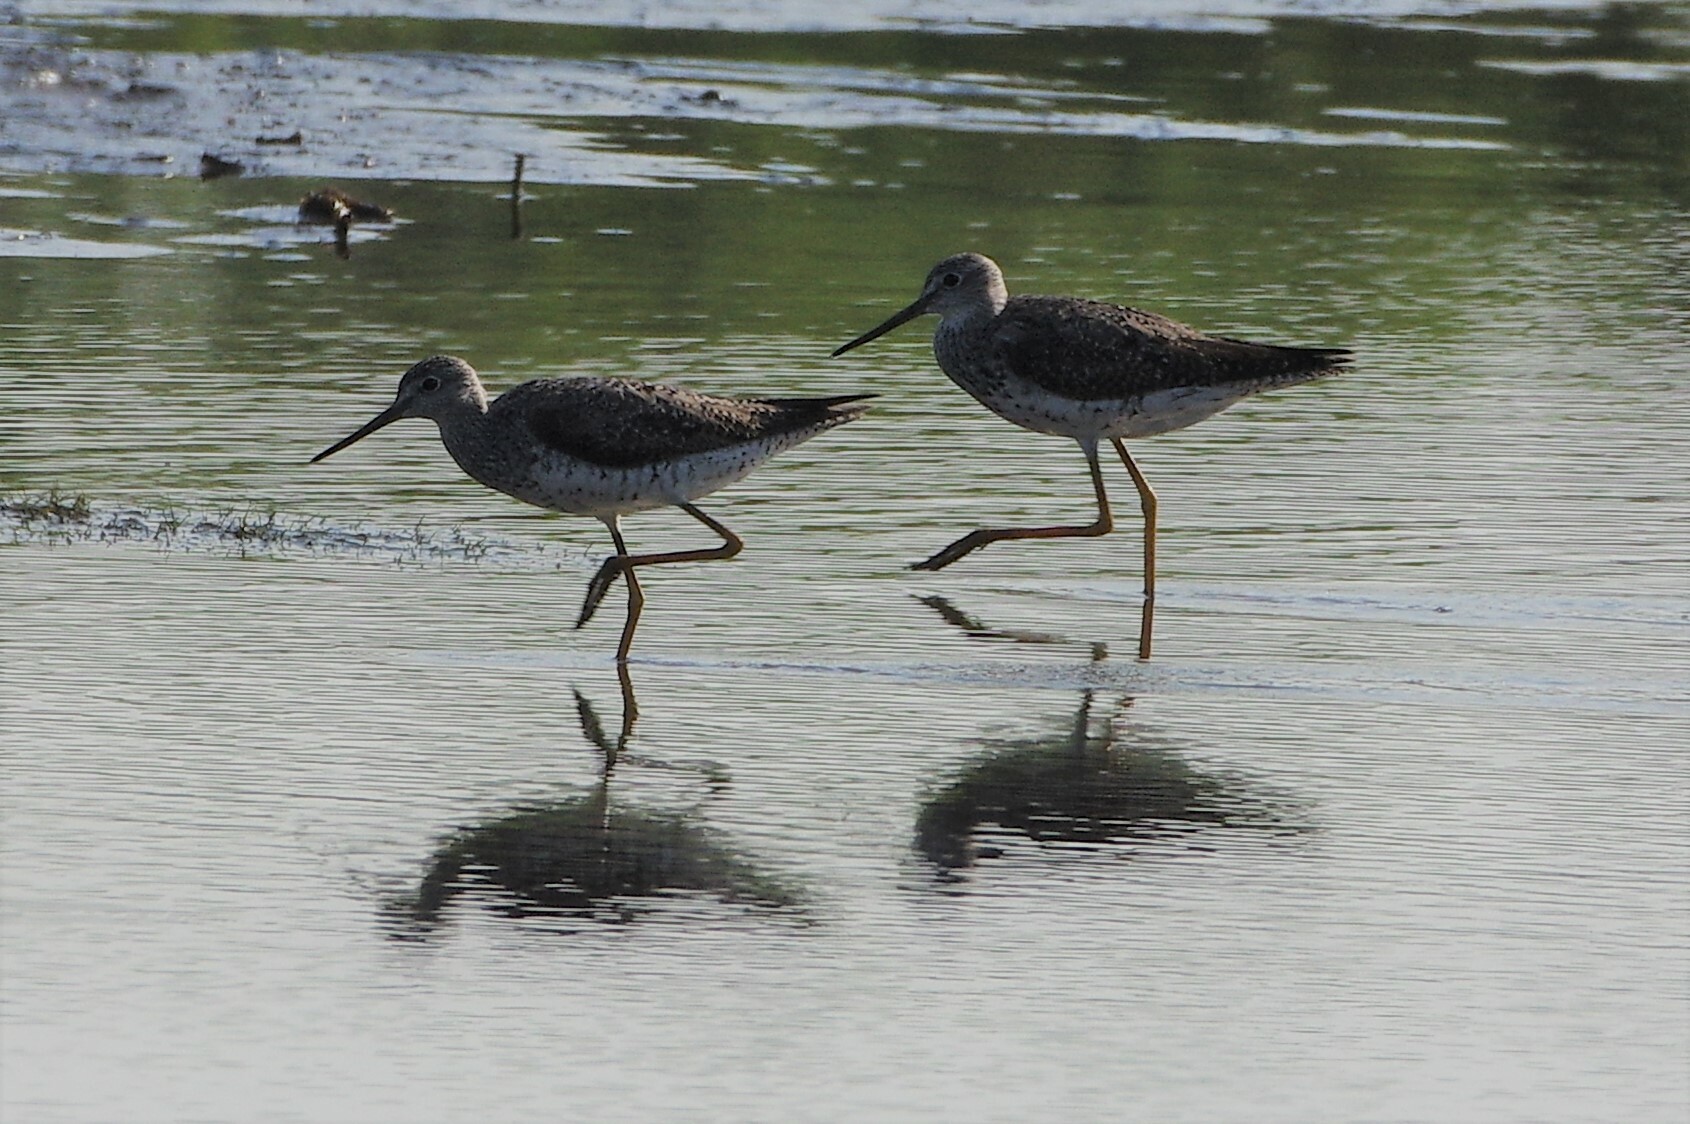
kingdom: Animalia
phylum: Chordata
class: Aves
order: Charadriiformes
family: Scolopacidae
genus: Tringa
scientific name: Tringa melanoleuca
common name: Greater yellowlegs
